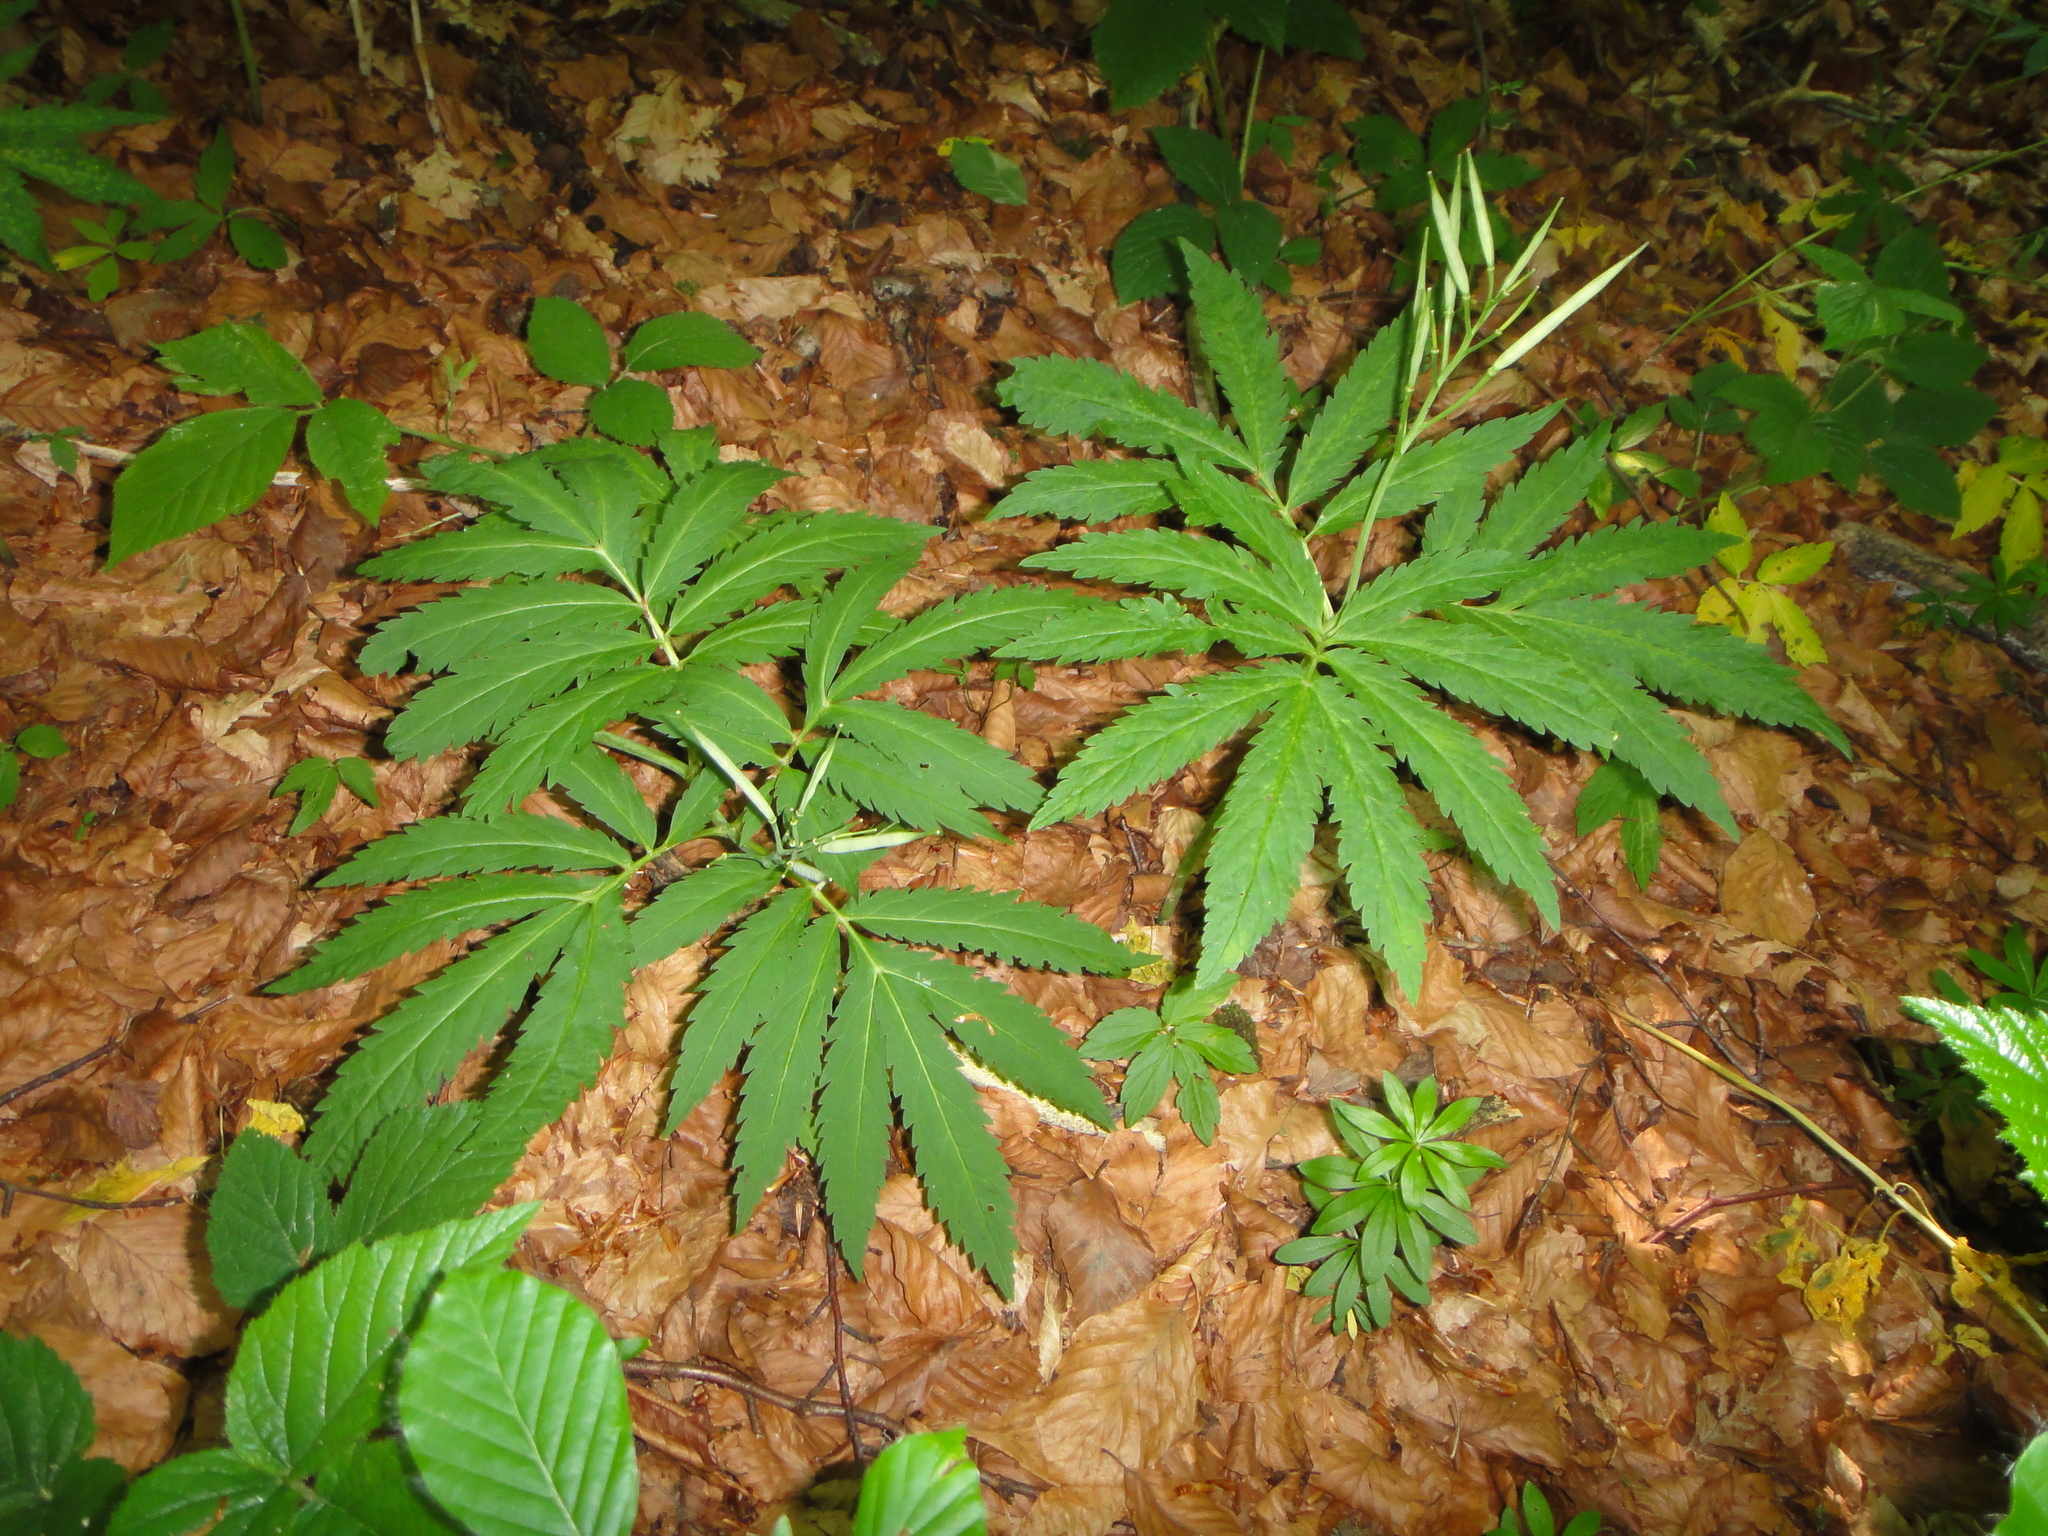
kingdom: Plantae
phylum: Tracheophyta
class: Magnoliopsida
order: Brassicales
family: Brassicaceae
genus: Cardamine
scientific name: Cardamine kitaibelii
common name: Kitaibel's bitter-cress
